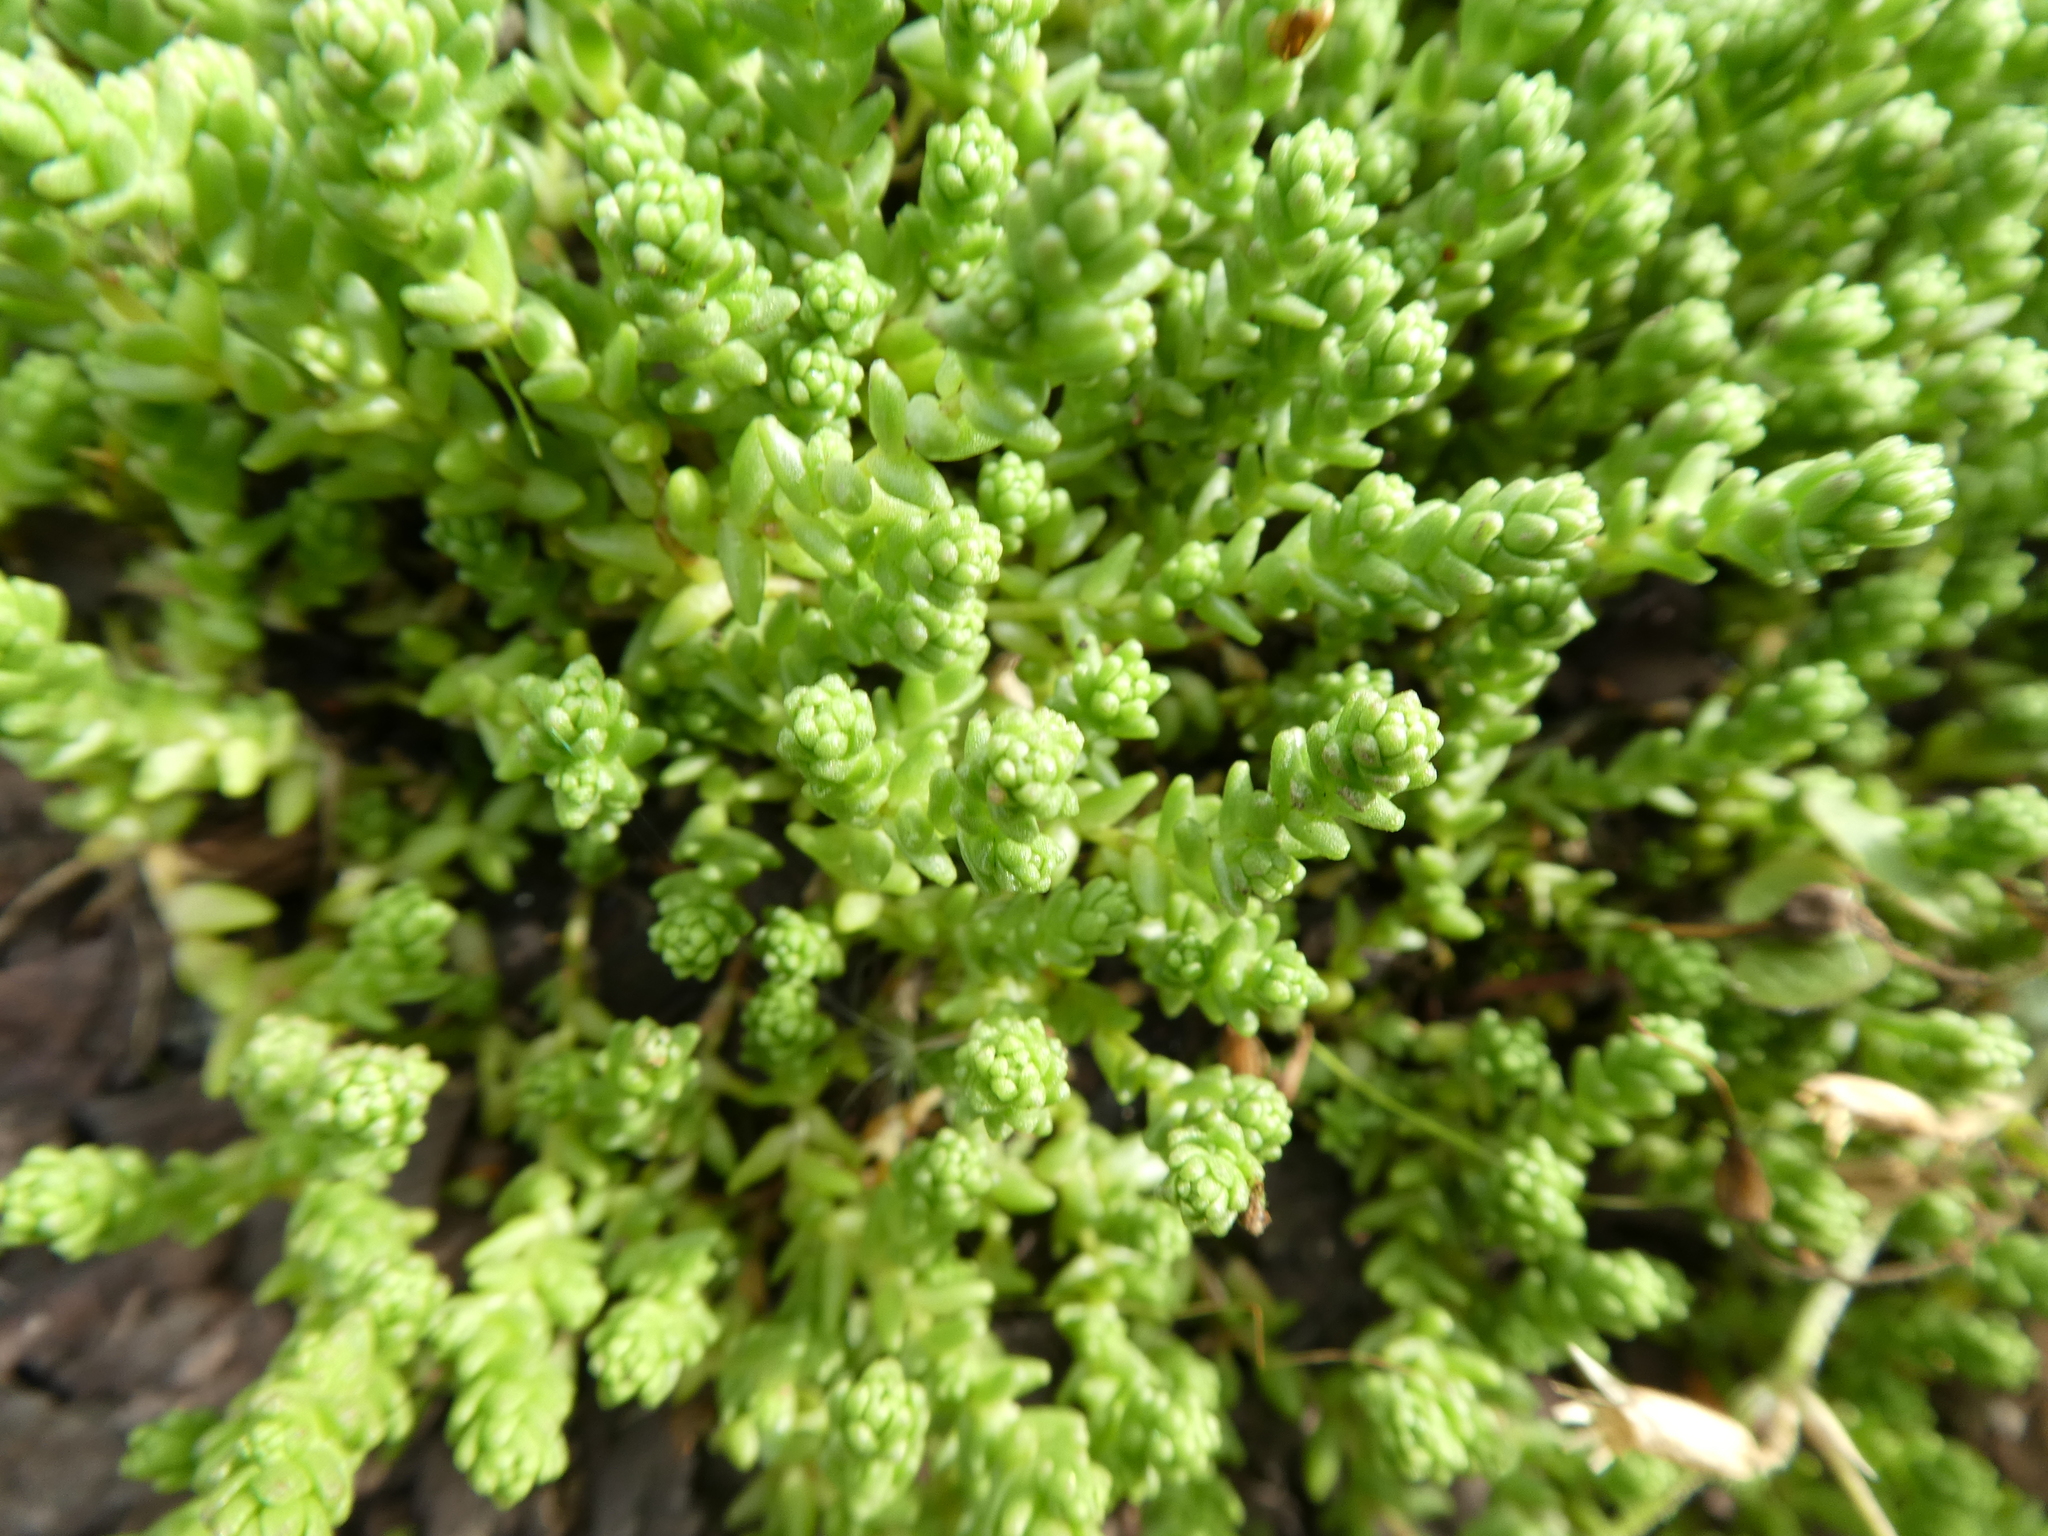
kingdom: Plantae
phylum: Tracheophyta
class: Magnoliopsida
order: Saxifragales
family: Crassulaceae
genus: Sedum
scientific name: Sedum acre
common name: Biting stonecrop
